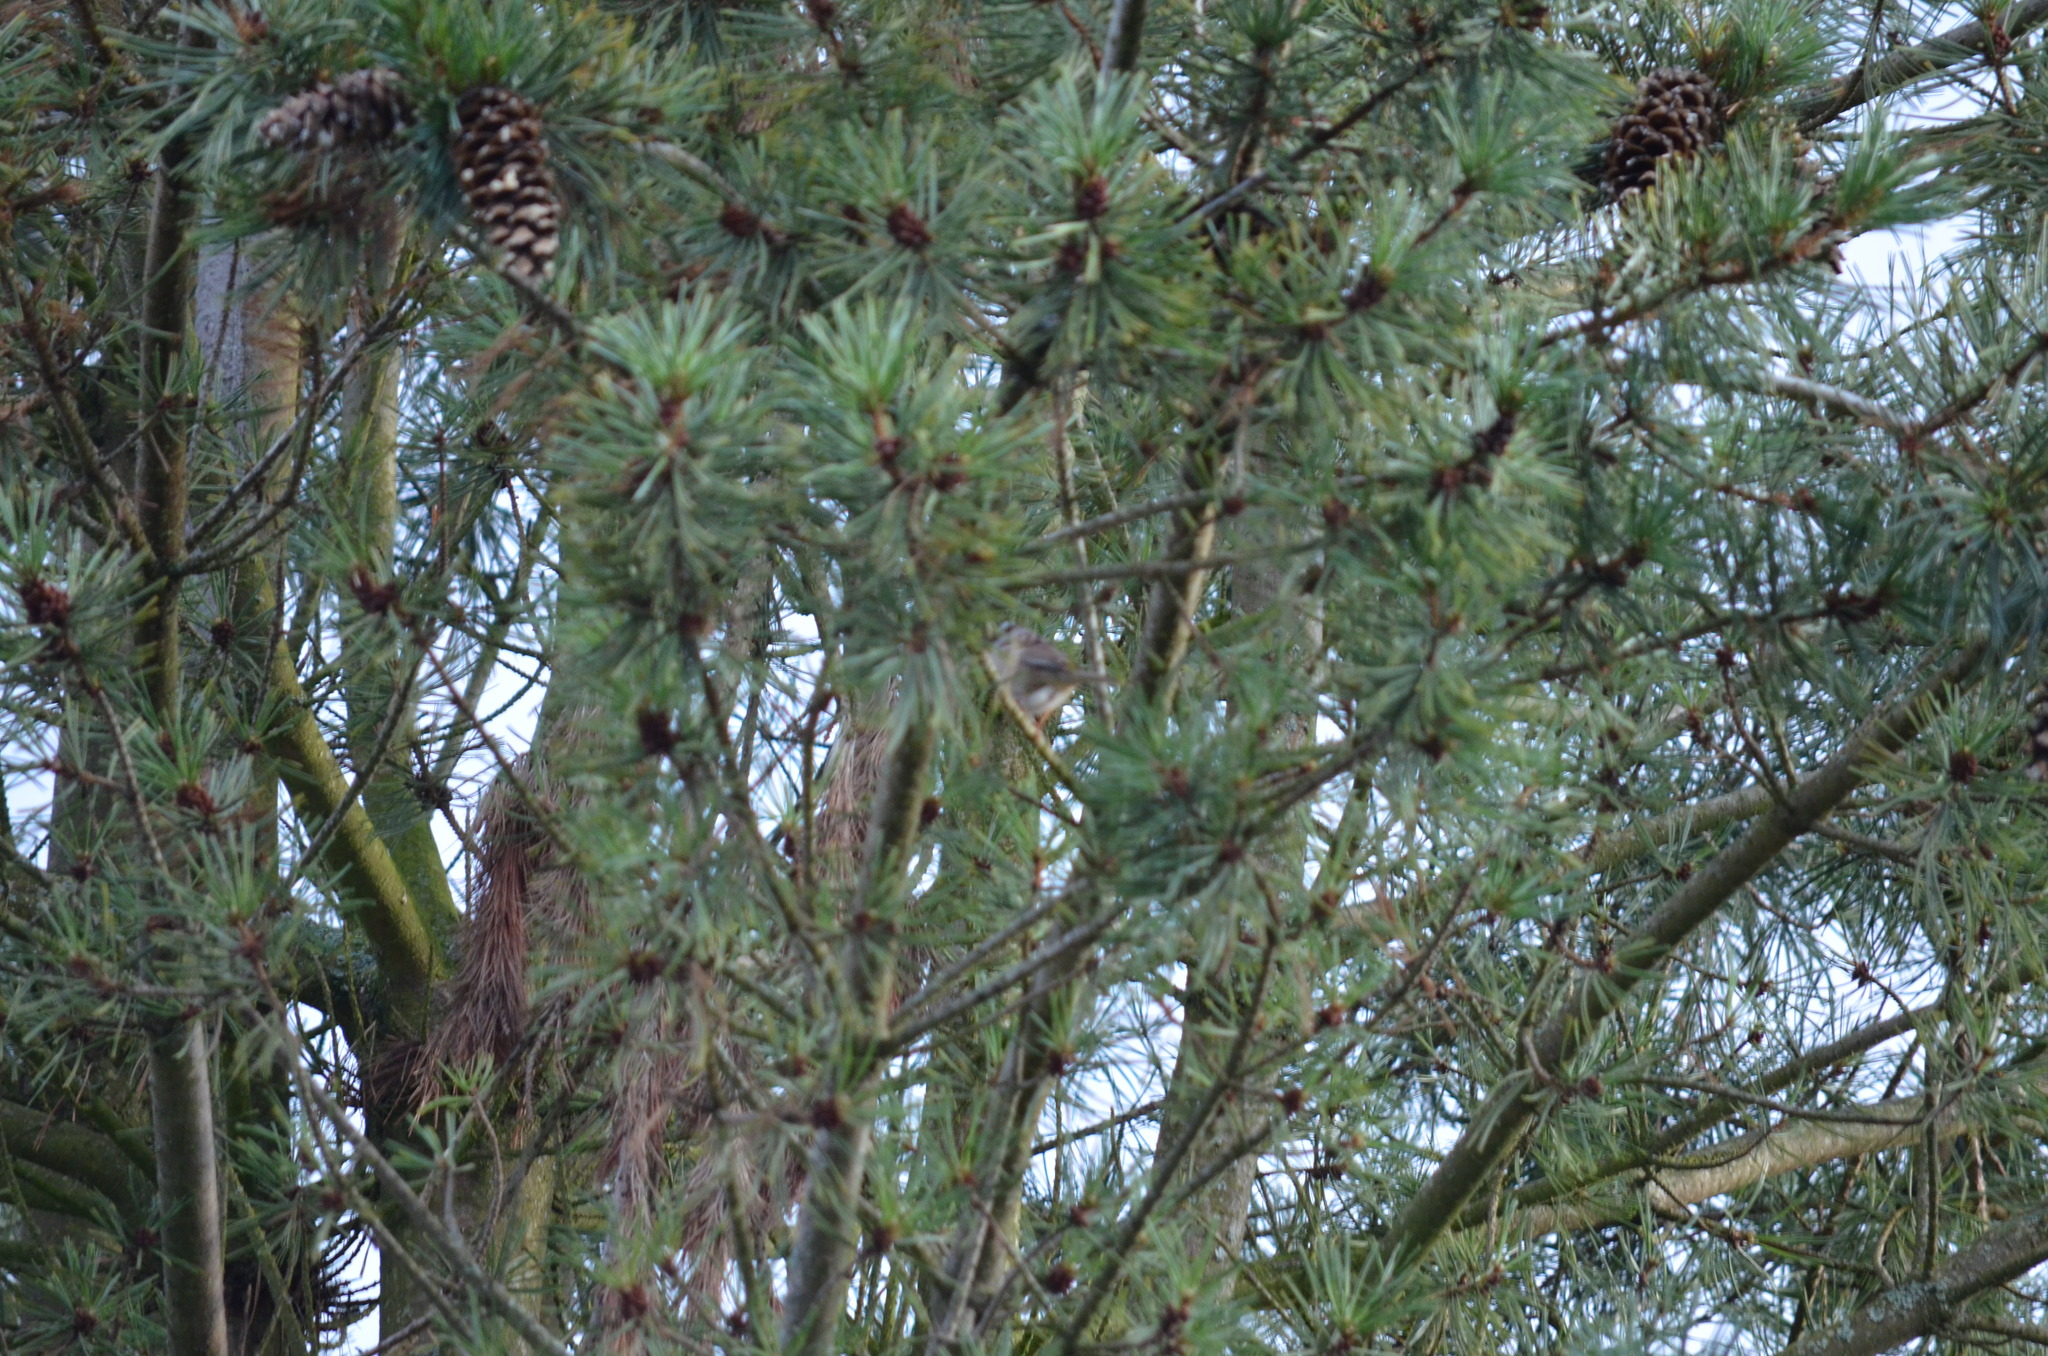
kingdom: Animalia
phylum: Chordata
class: Aves
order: Passeriformes
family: Passerellidae
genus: Zonotrichia
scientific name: Zonotrichia leucophrys
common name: White-crowned sparrow
